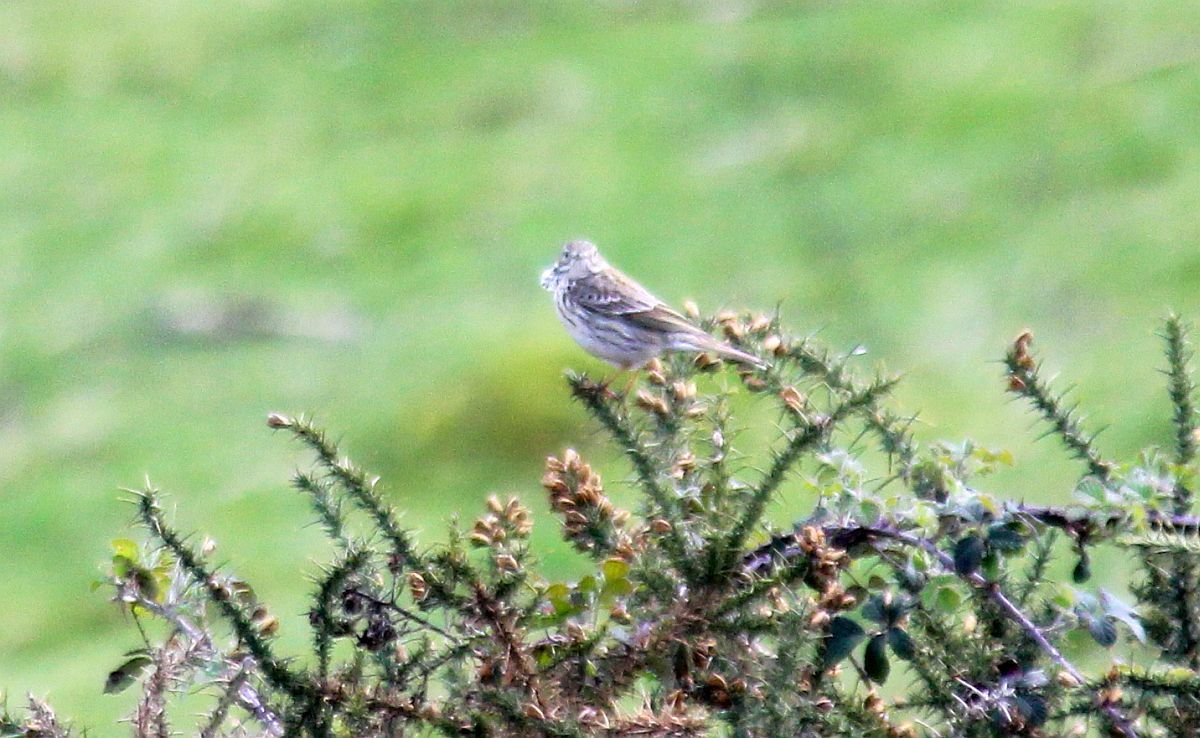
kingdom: Animalia
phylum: Chordata
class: Aves
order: Passeriformes
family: Motacillidae
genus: Anthus
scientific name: Anthus pratensis
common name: Meadow pipit
